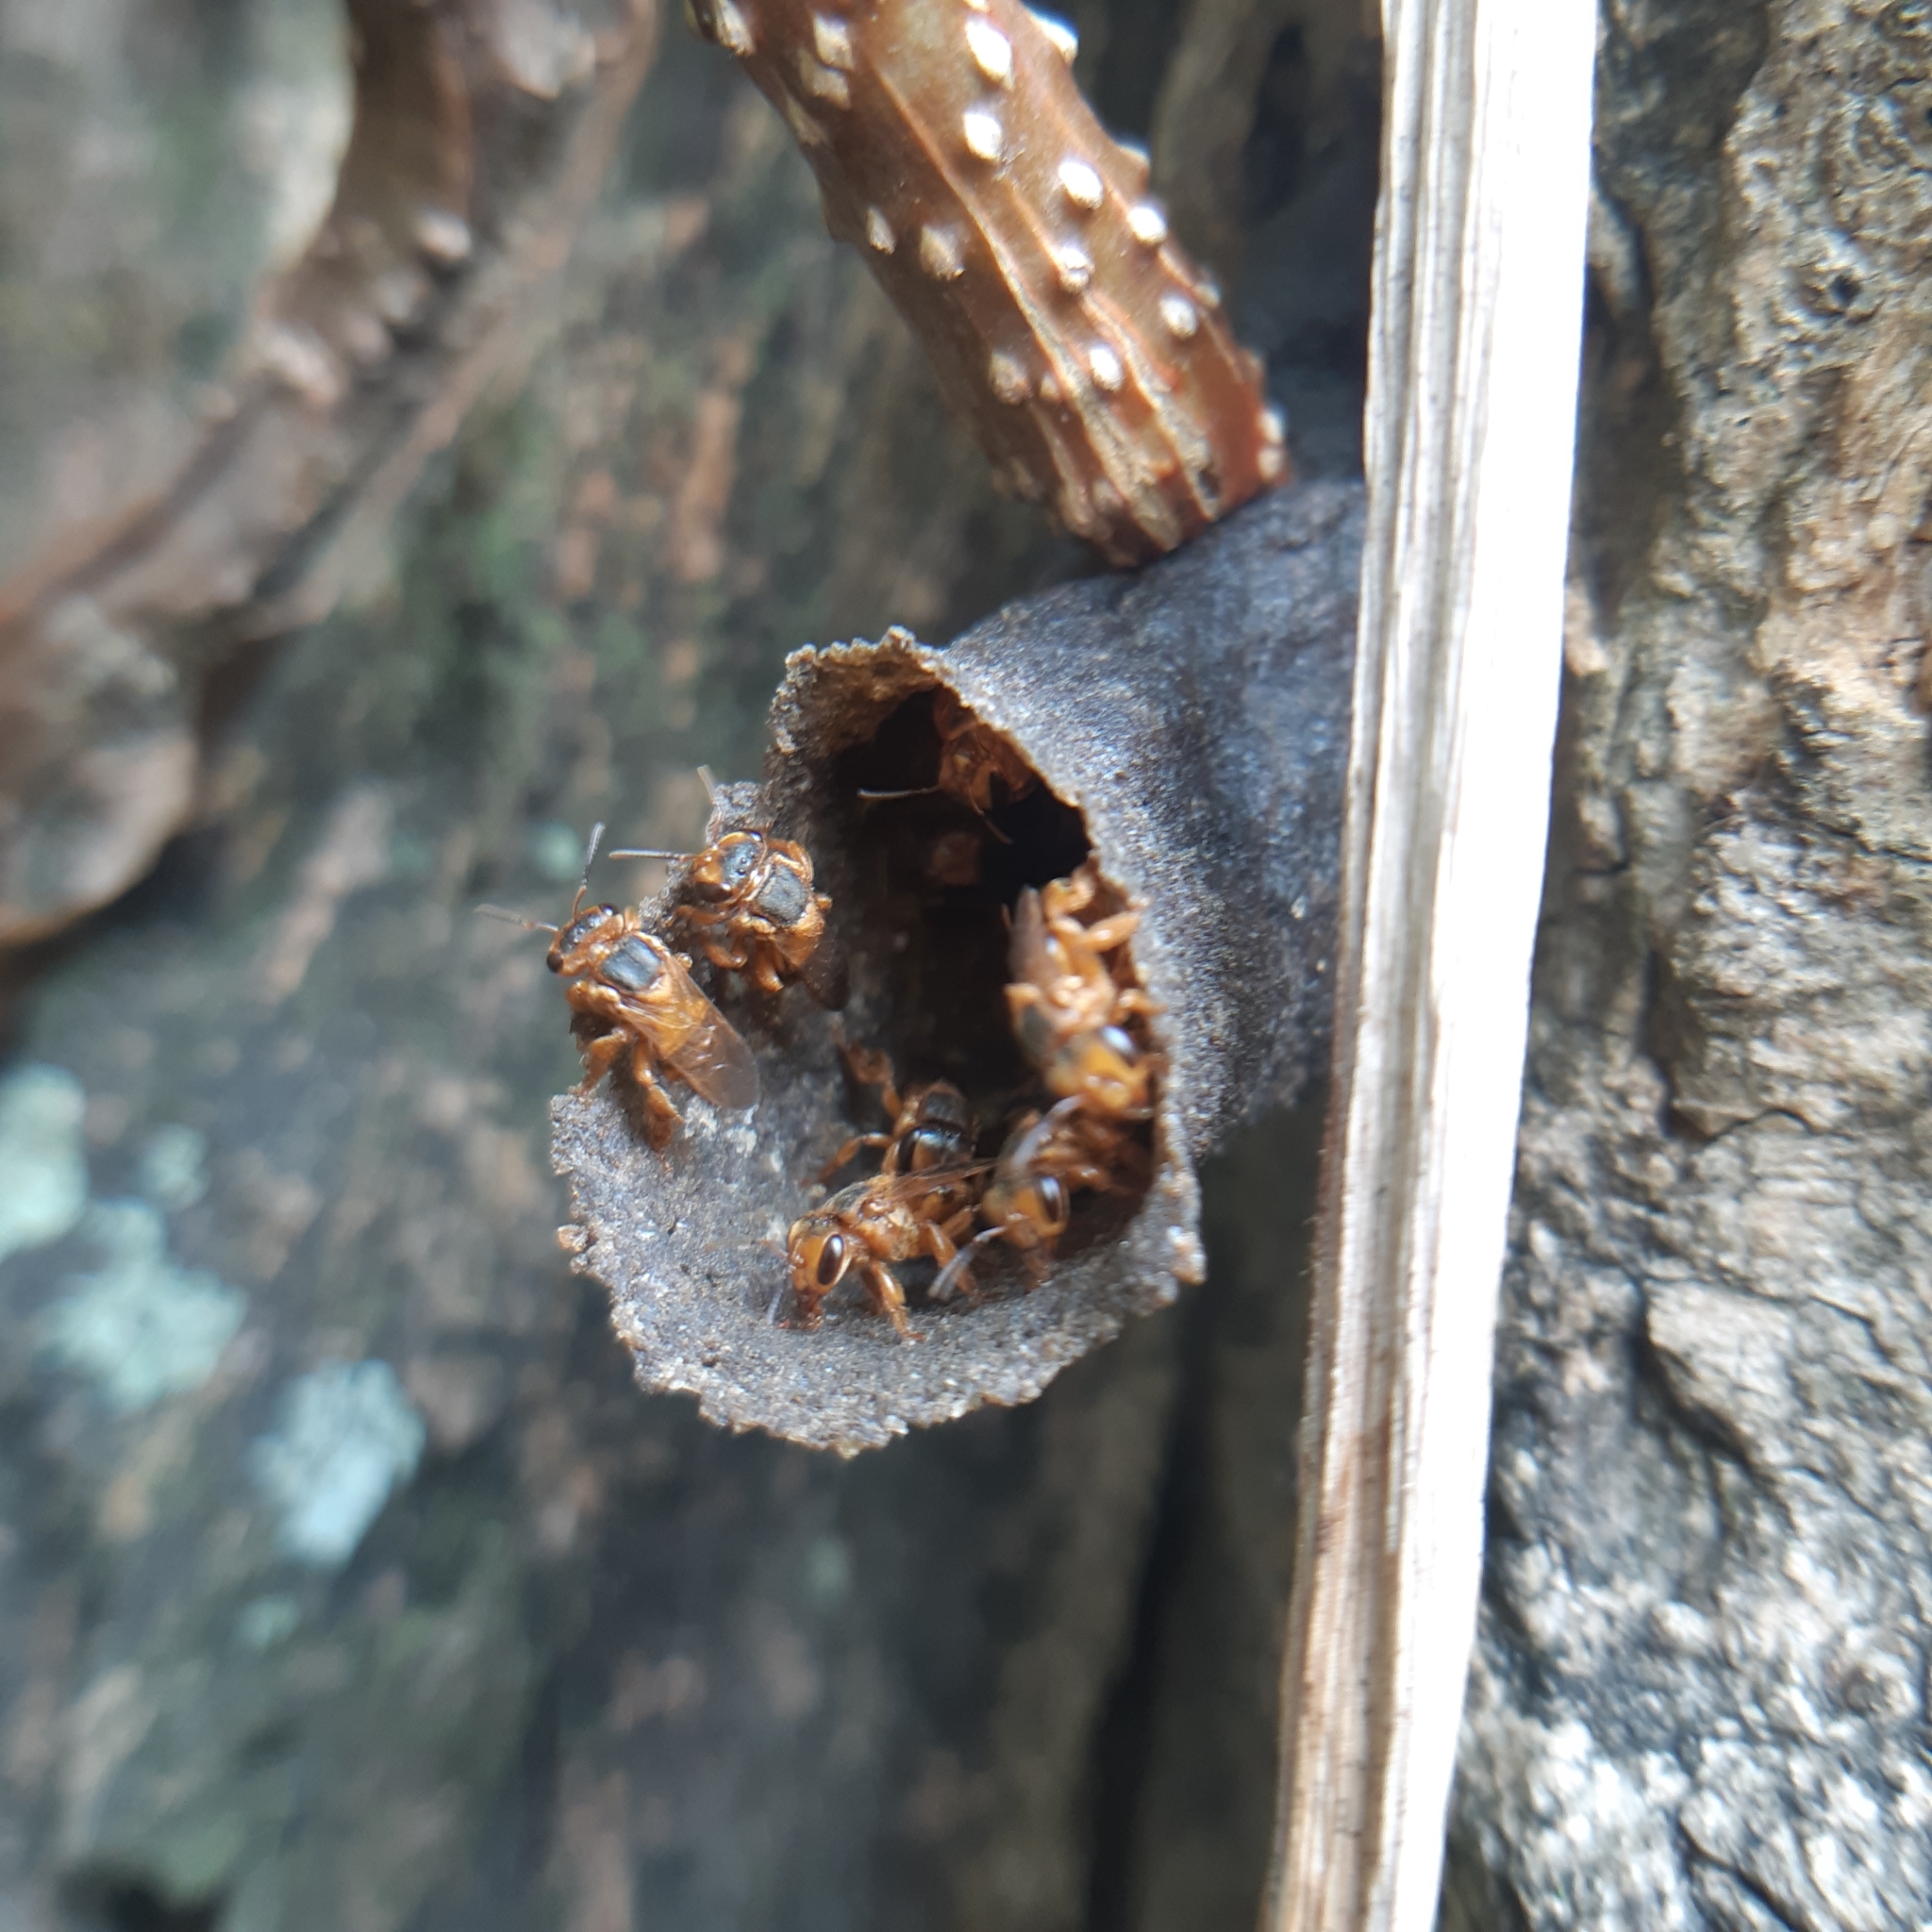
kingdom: Animalia
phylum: Arthropoda
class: Insecta
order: Hymenoptera
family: Apidae
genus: Scaptotrigona
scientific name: Scaptotrigona pectoralis
